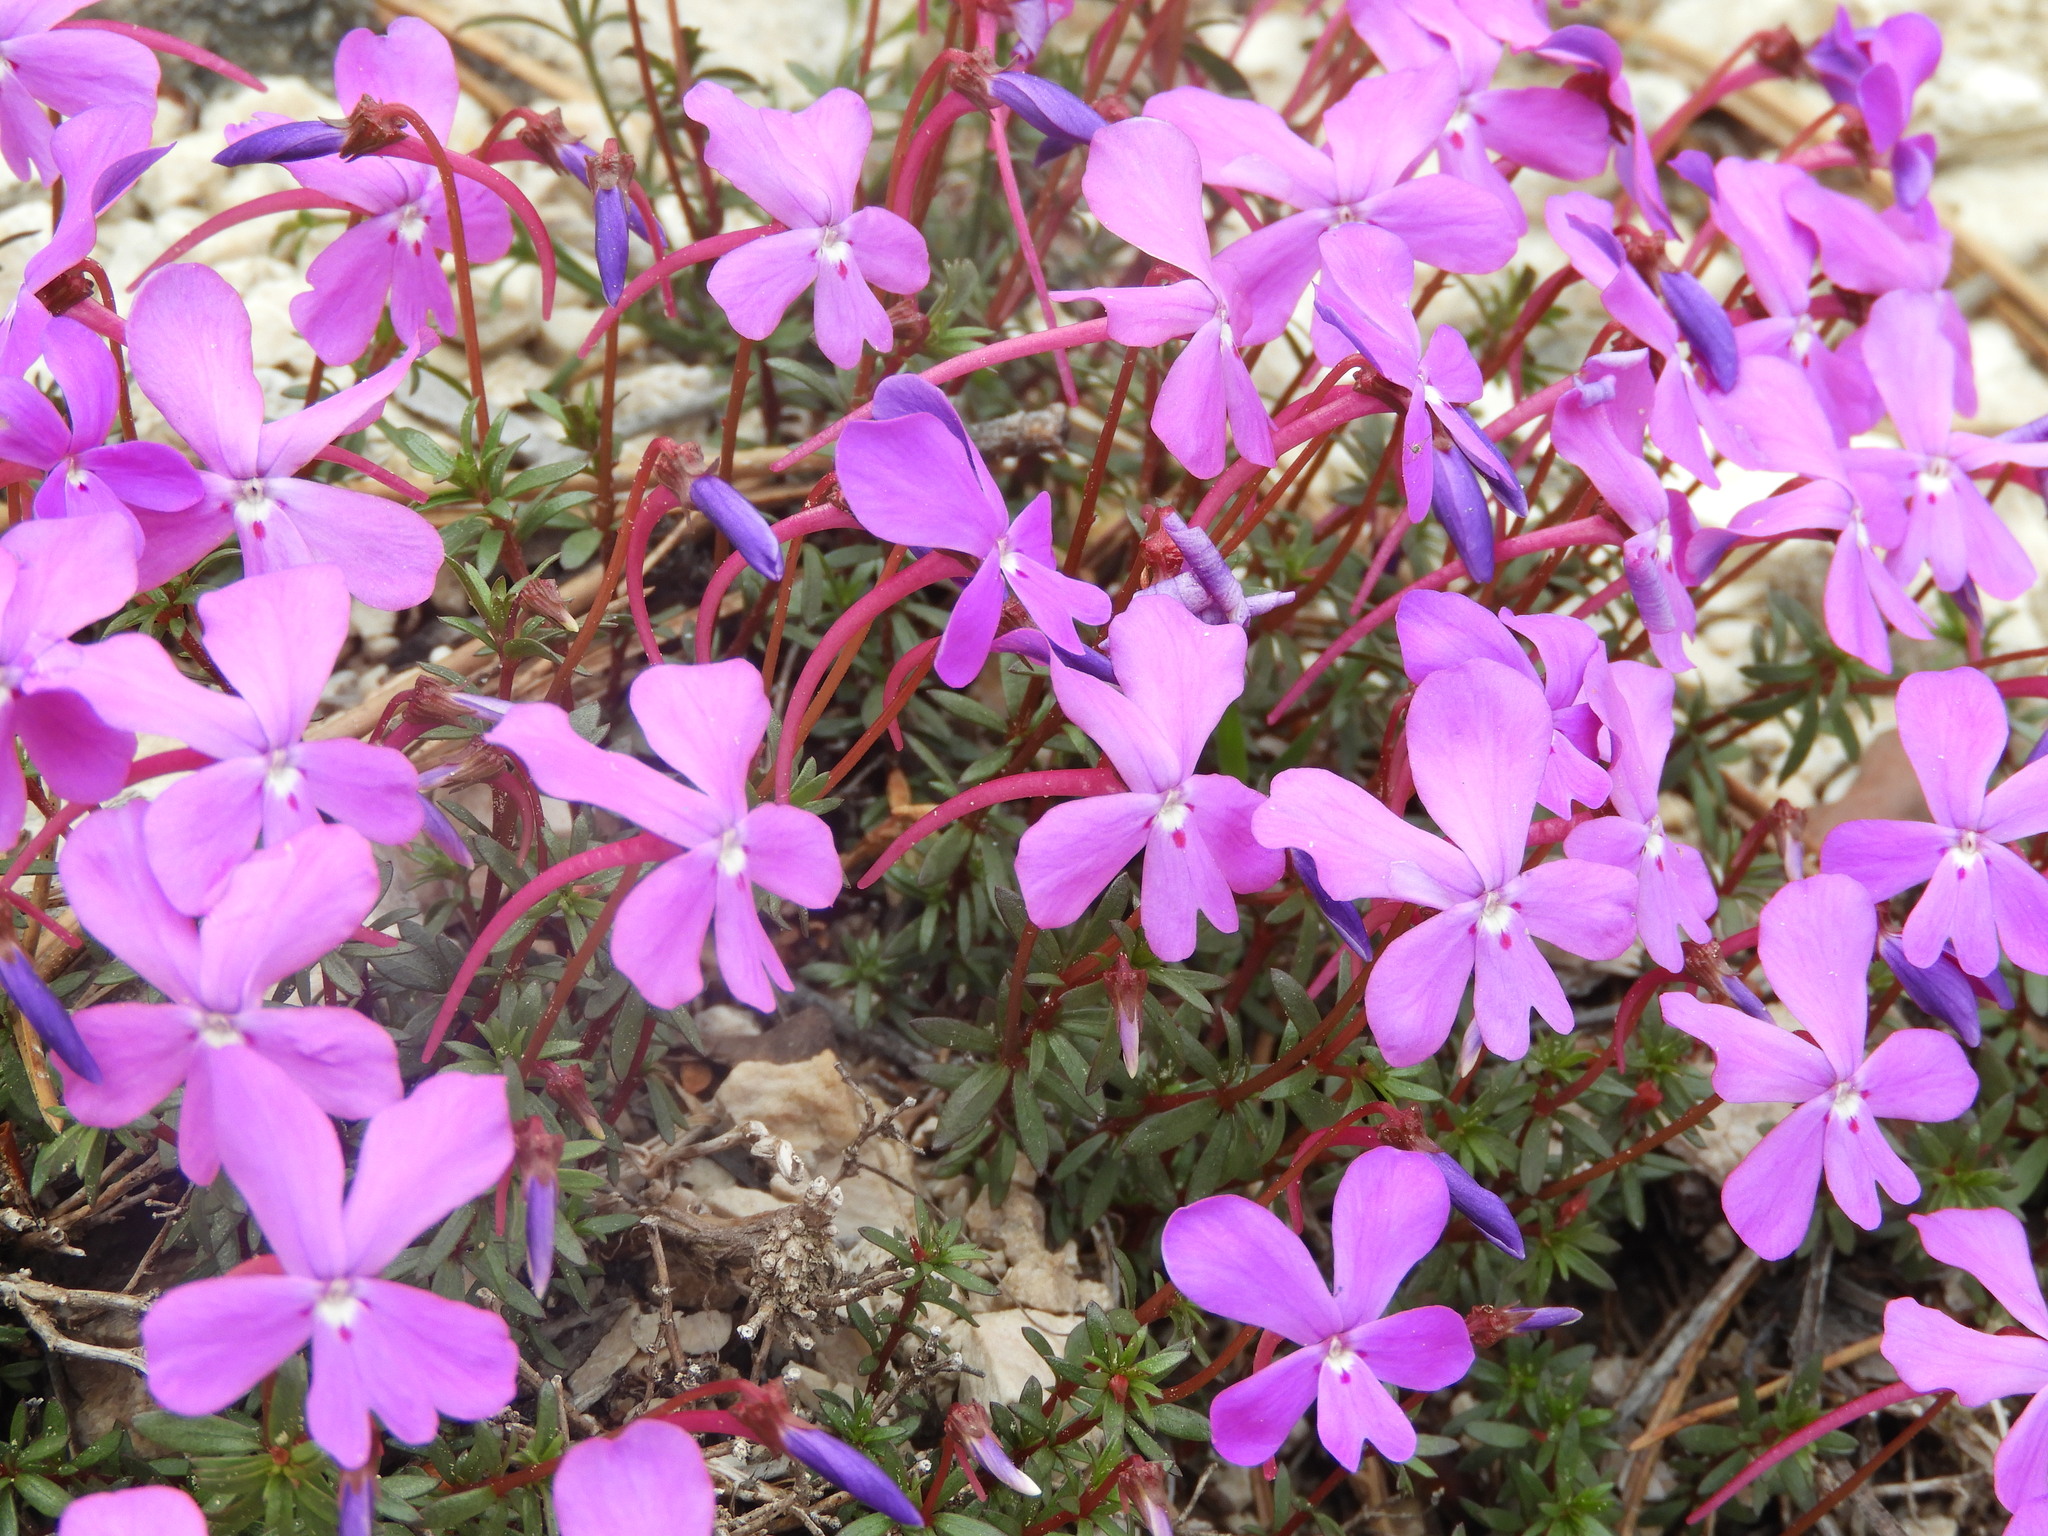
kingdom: Plantae
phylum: Tracheophyta
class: Magnoliopsida
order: Malpighiales
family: Violaceae
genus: Viola
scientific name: Viola cazorlensis
